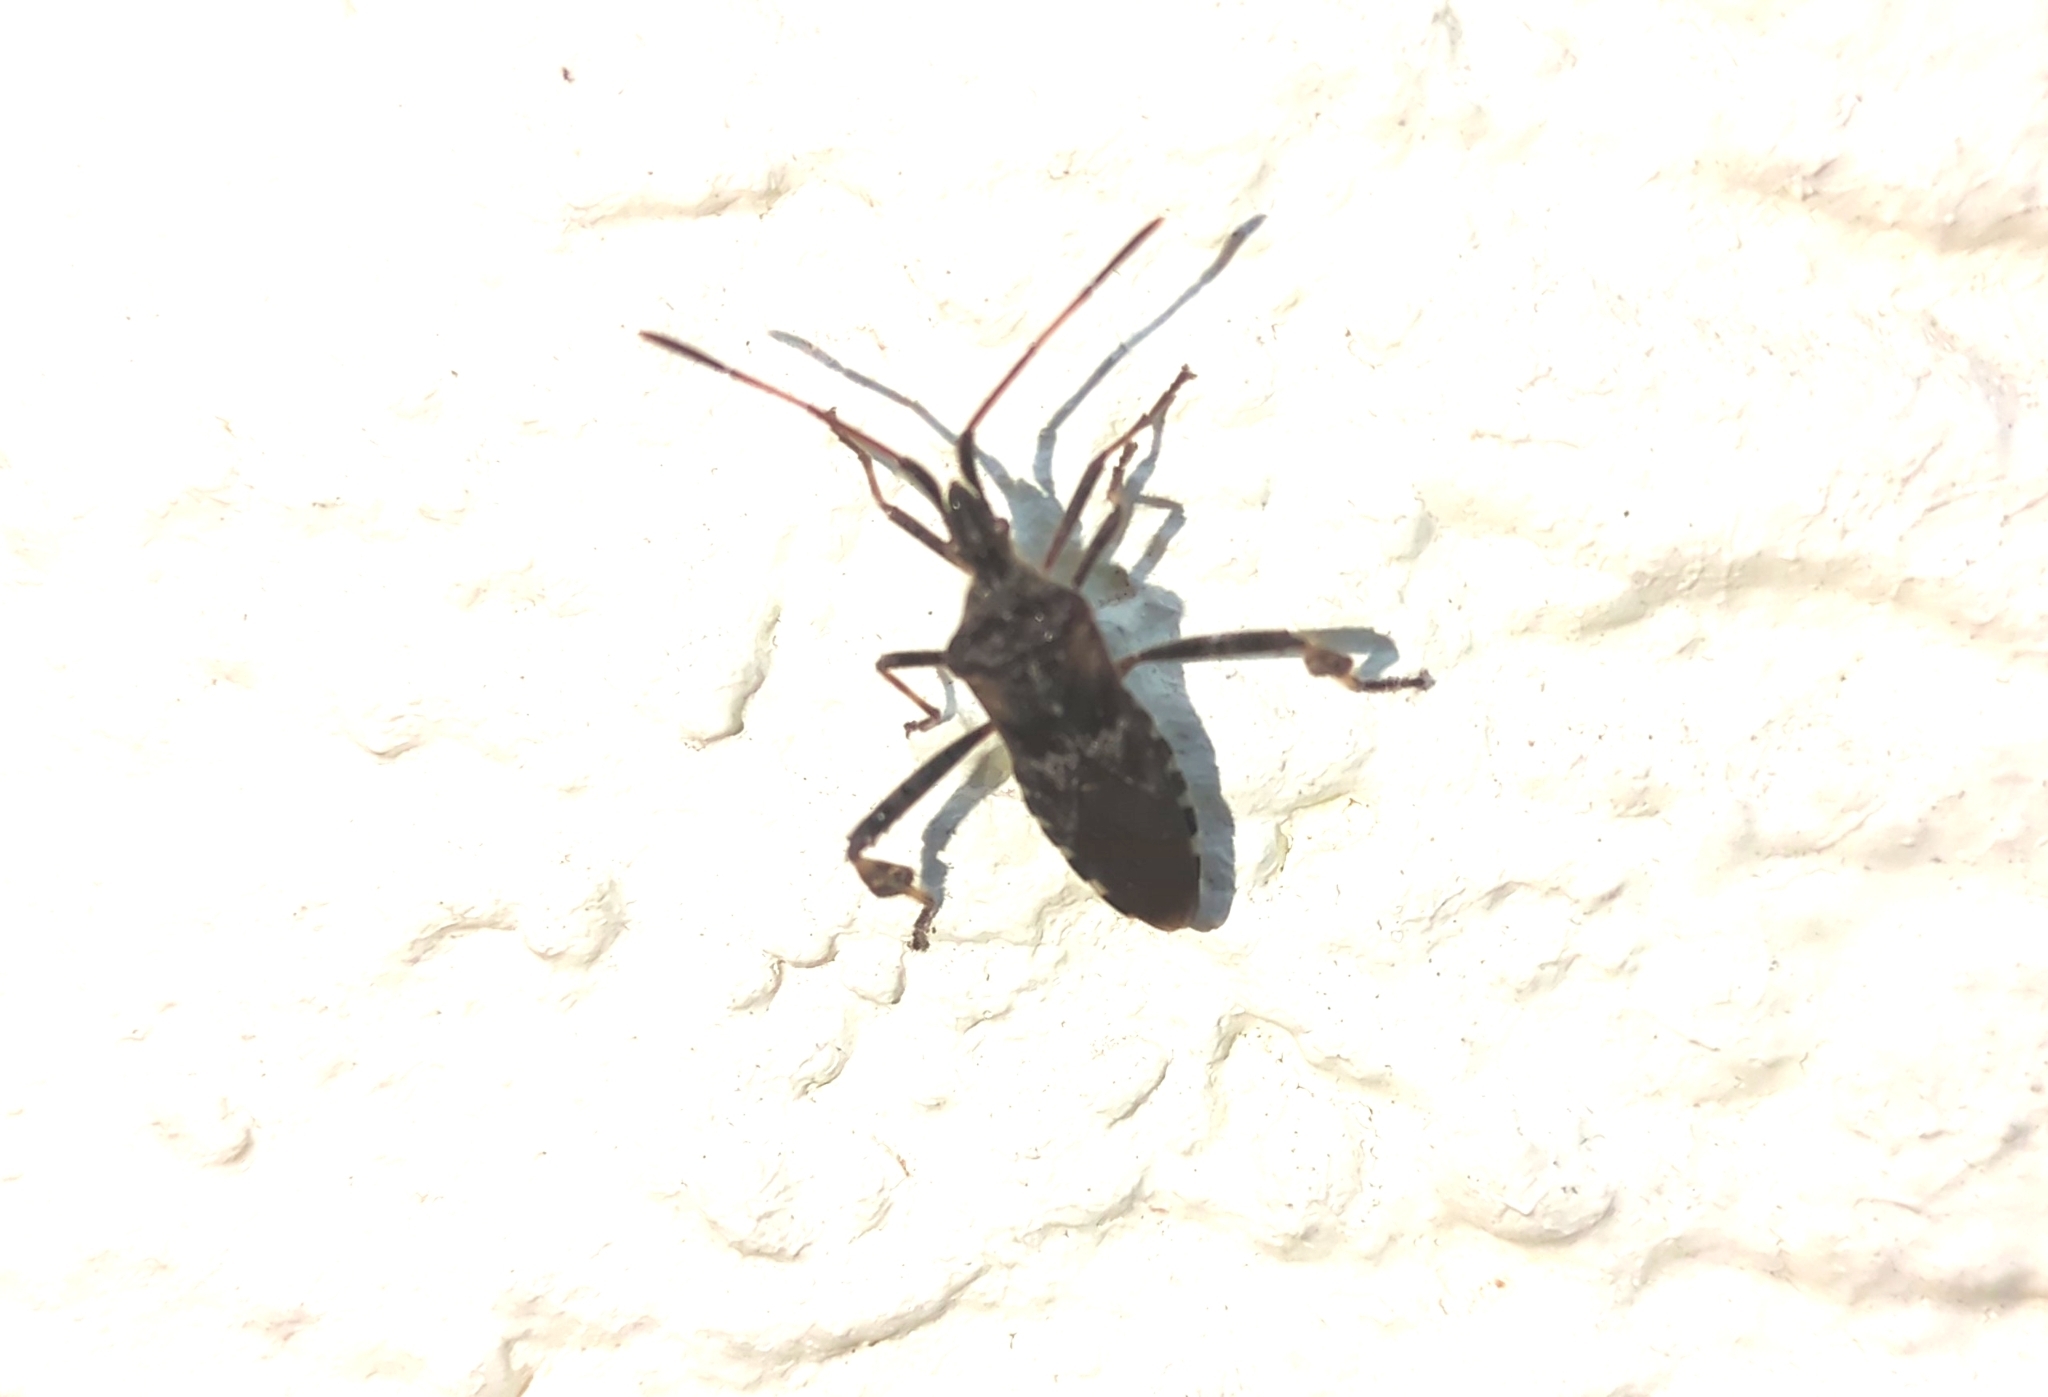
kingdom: Animalia
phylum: Arthropoda
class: Insecta
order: Hemiptera
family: Coreidae
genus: Leptoglossus
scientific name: Leptoglossus occidentalis
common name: Western conifer-seed bug
